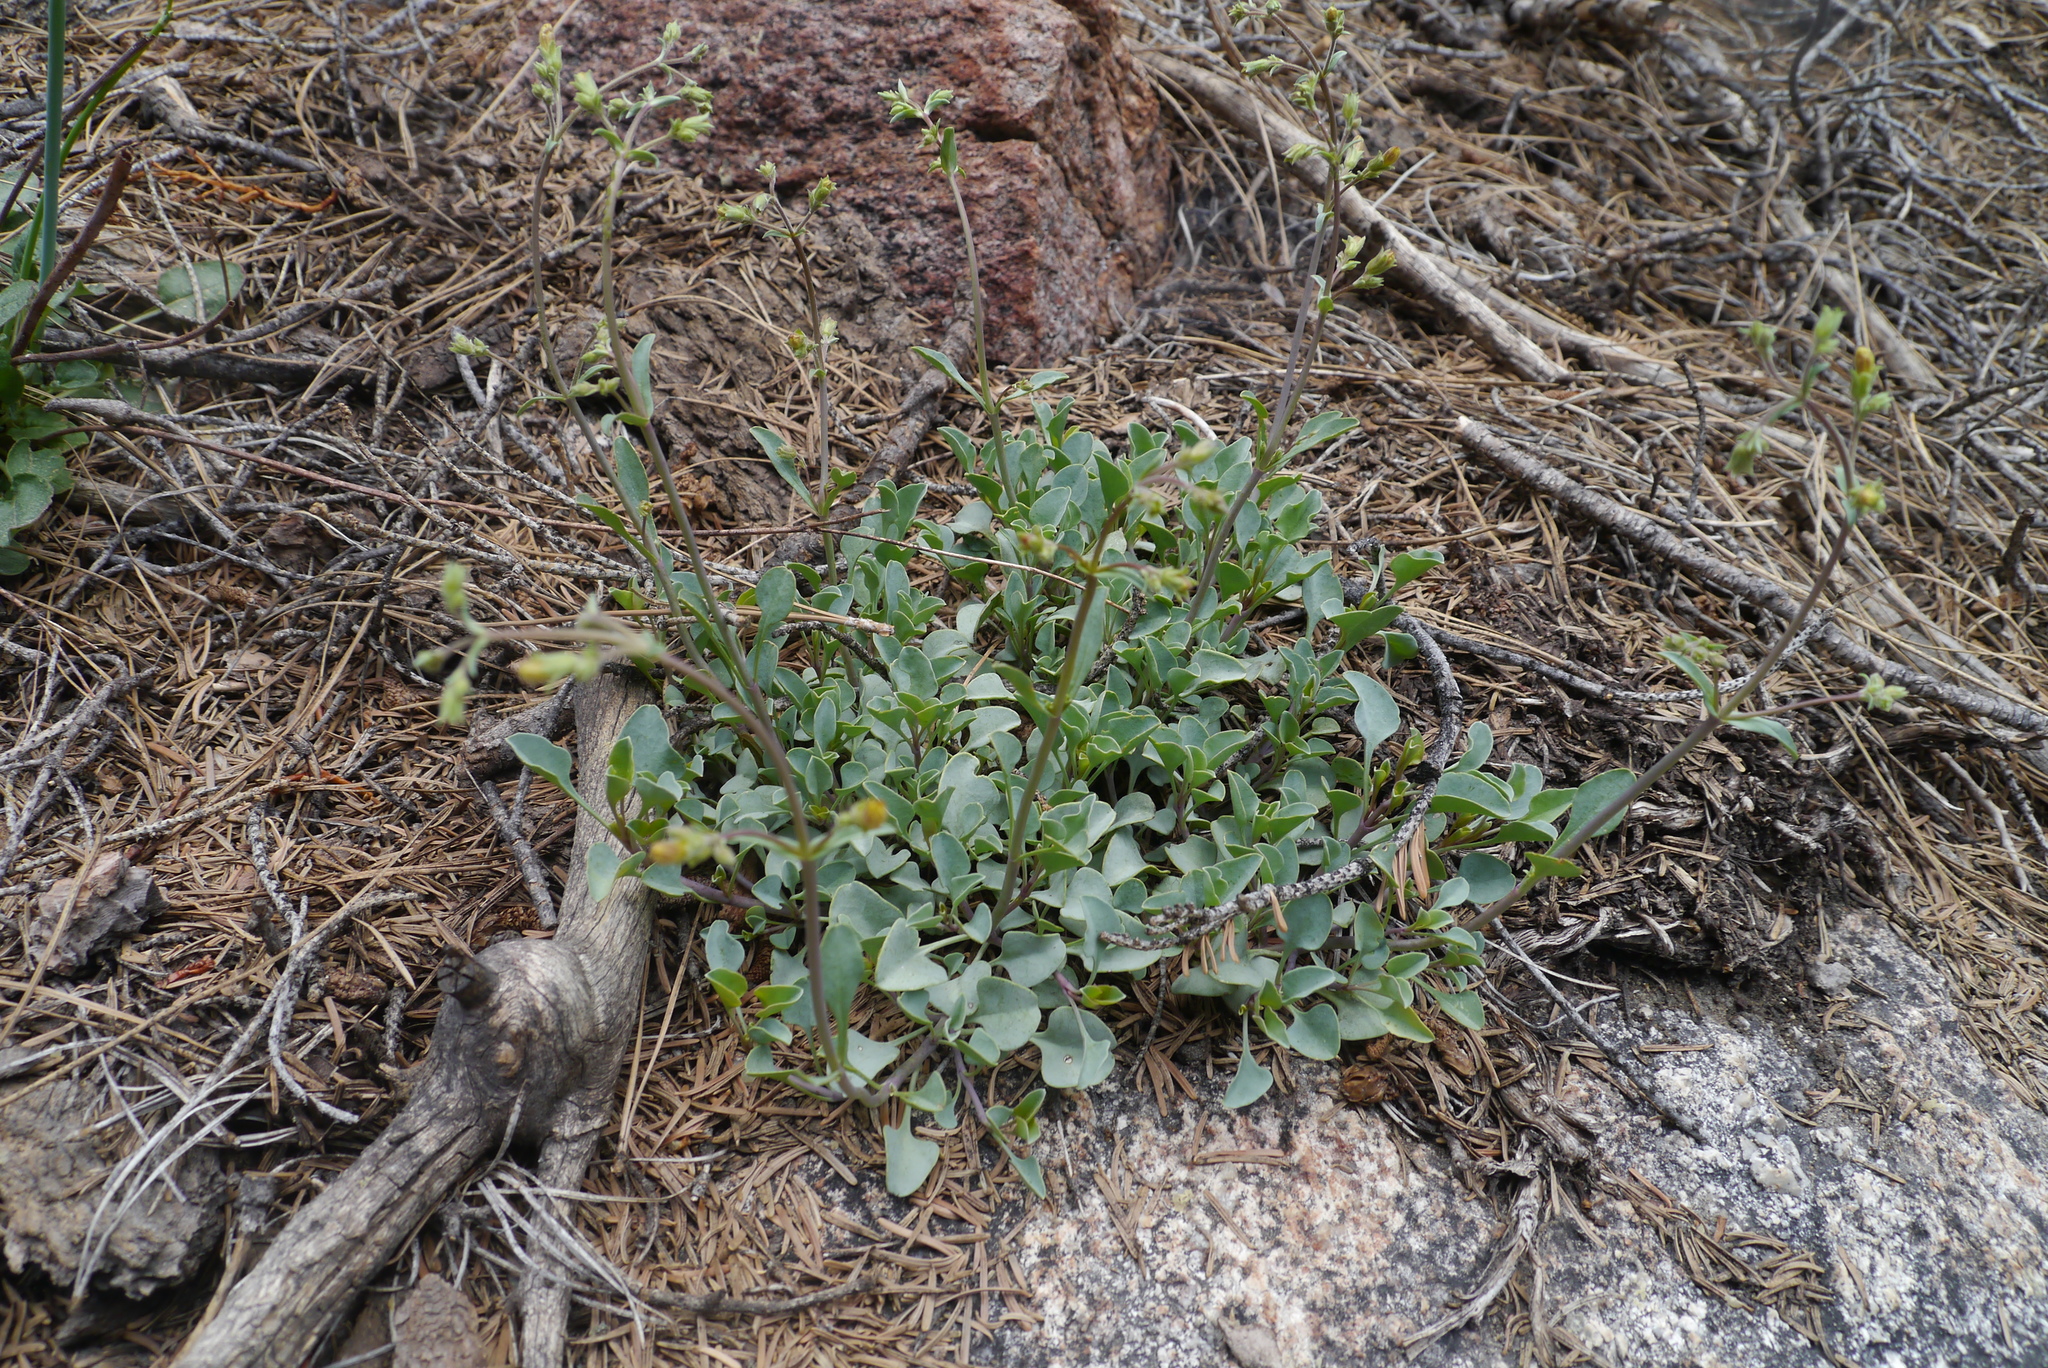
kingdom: Plantae
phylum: Tracheophyta
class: Magnoliopsida
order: Lamiales
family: Plantaginaceae
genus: Penstemon
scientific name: Penstemon caesius
